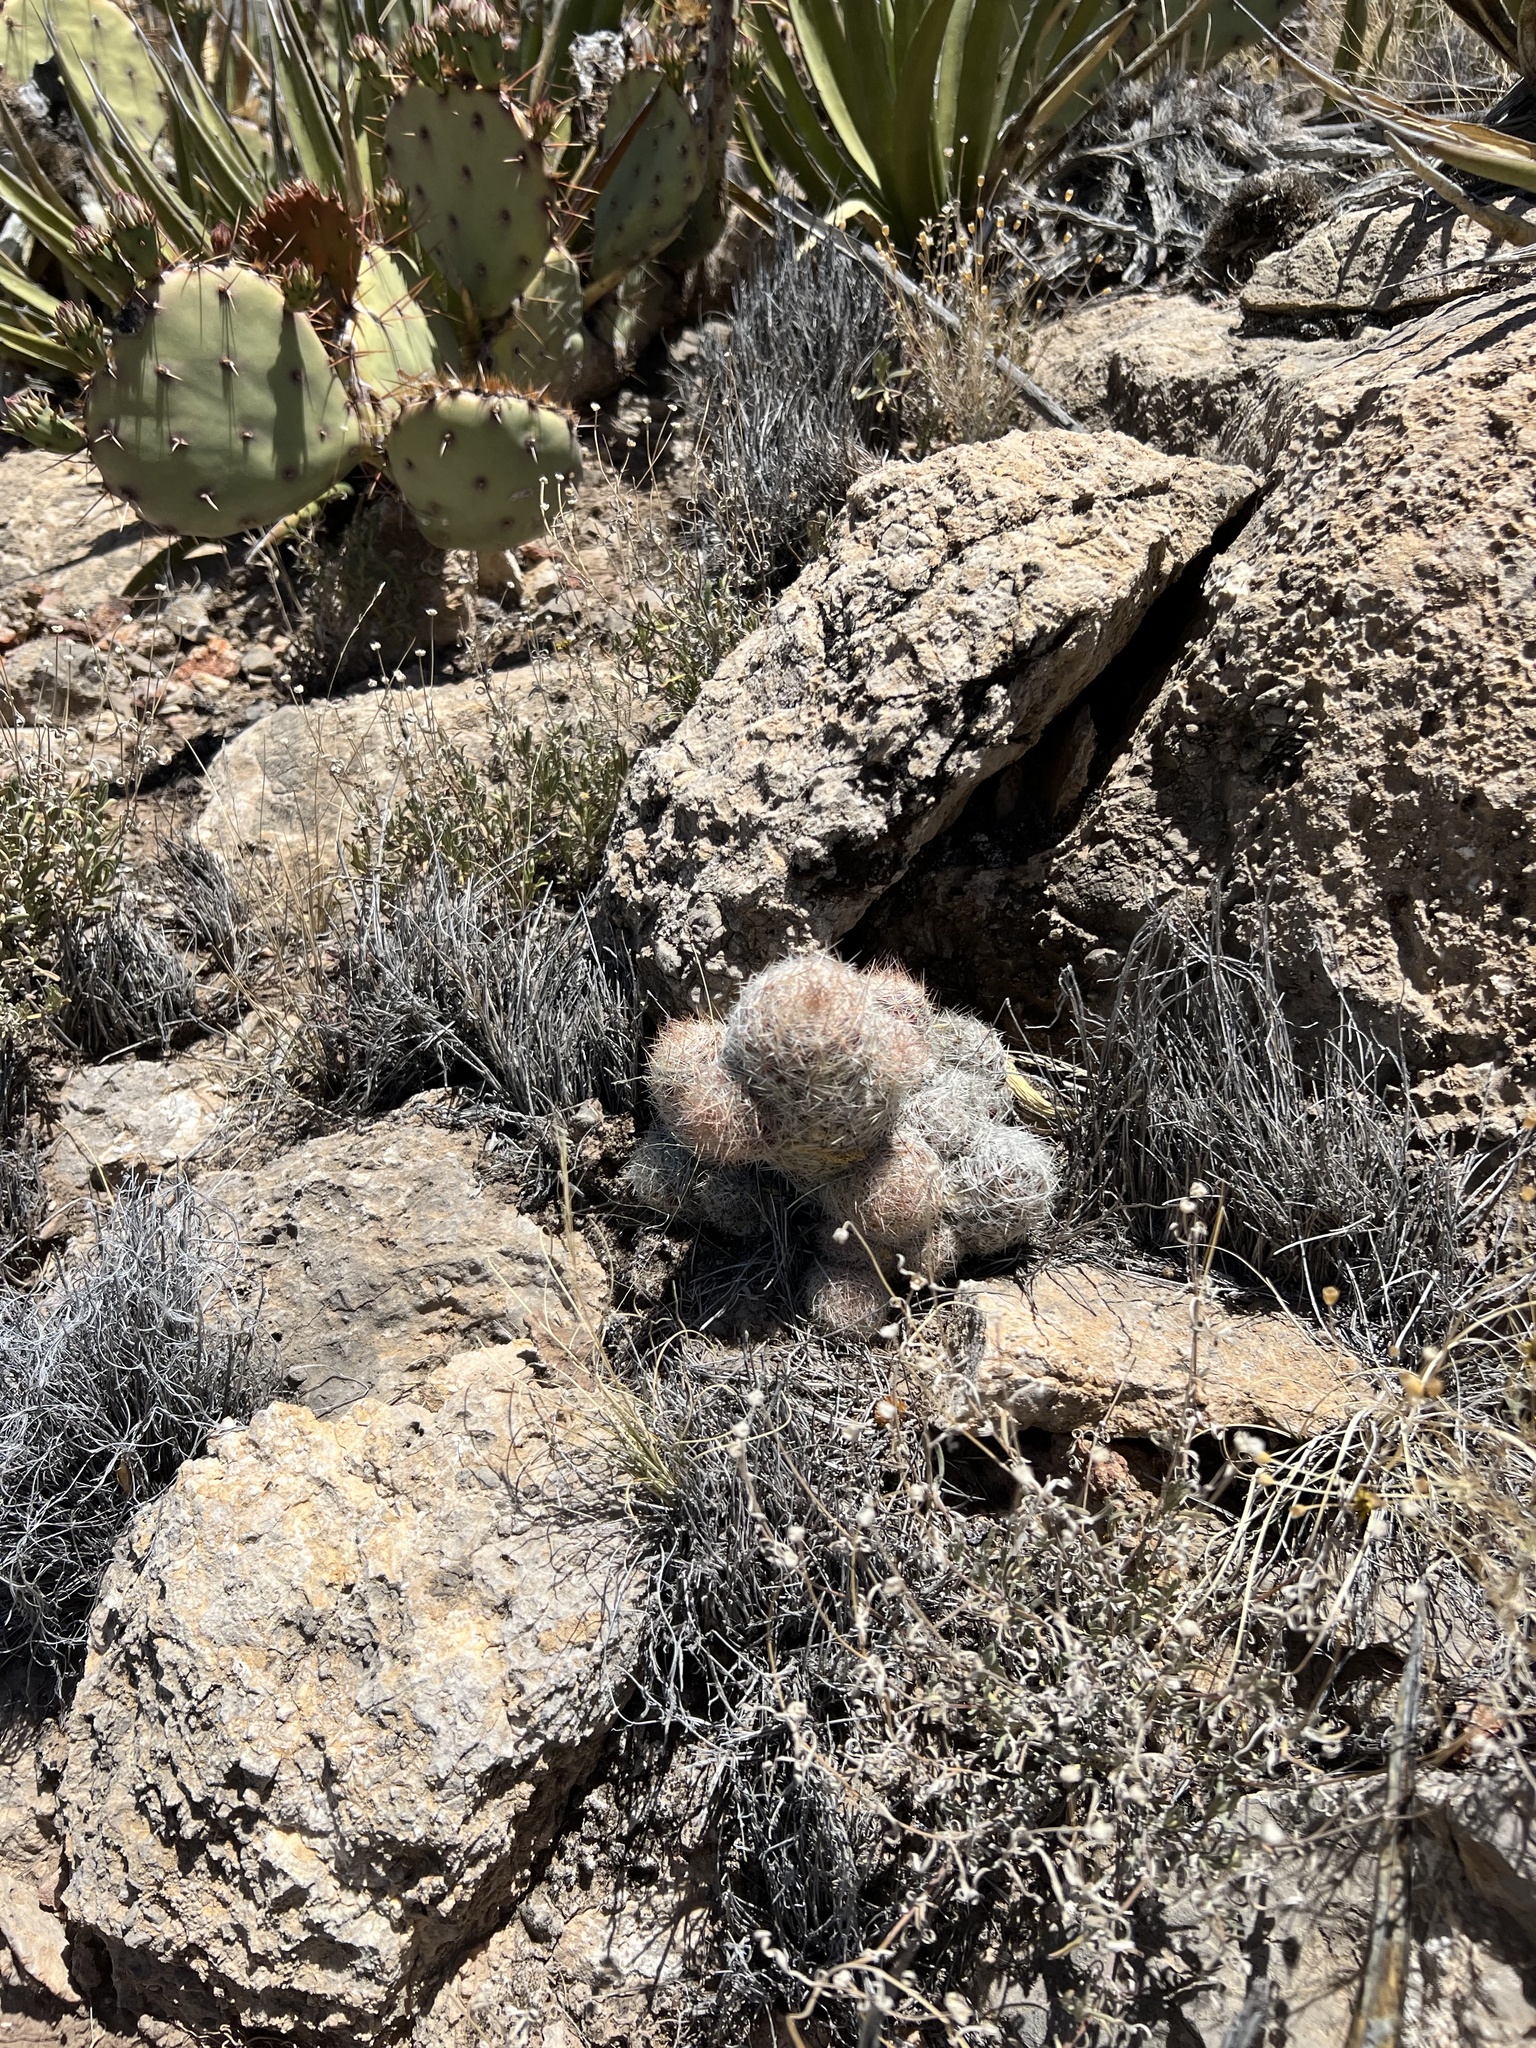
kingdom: Plantae
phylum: Tracheophyta
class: Magnoliopsida
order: Caryophyllales
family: Cactaceae
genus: Pelecyphora
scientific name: Pelecyphora tuberculosa
